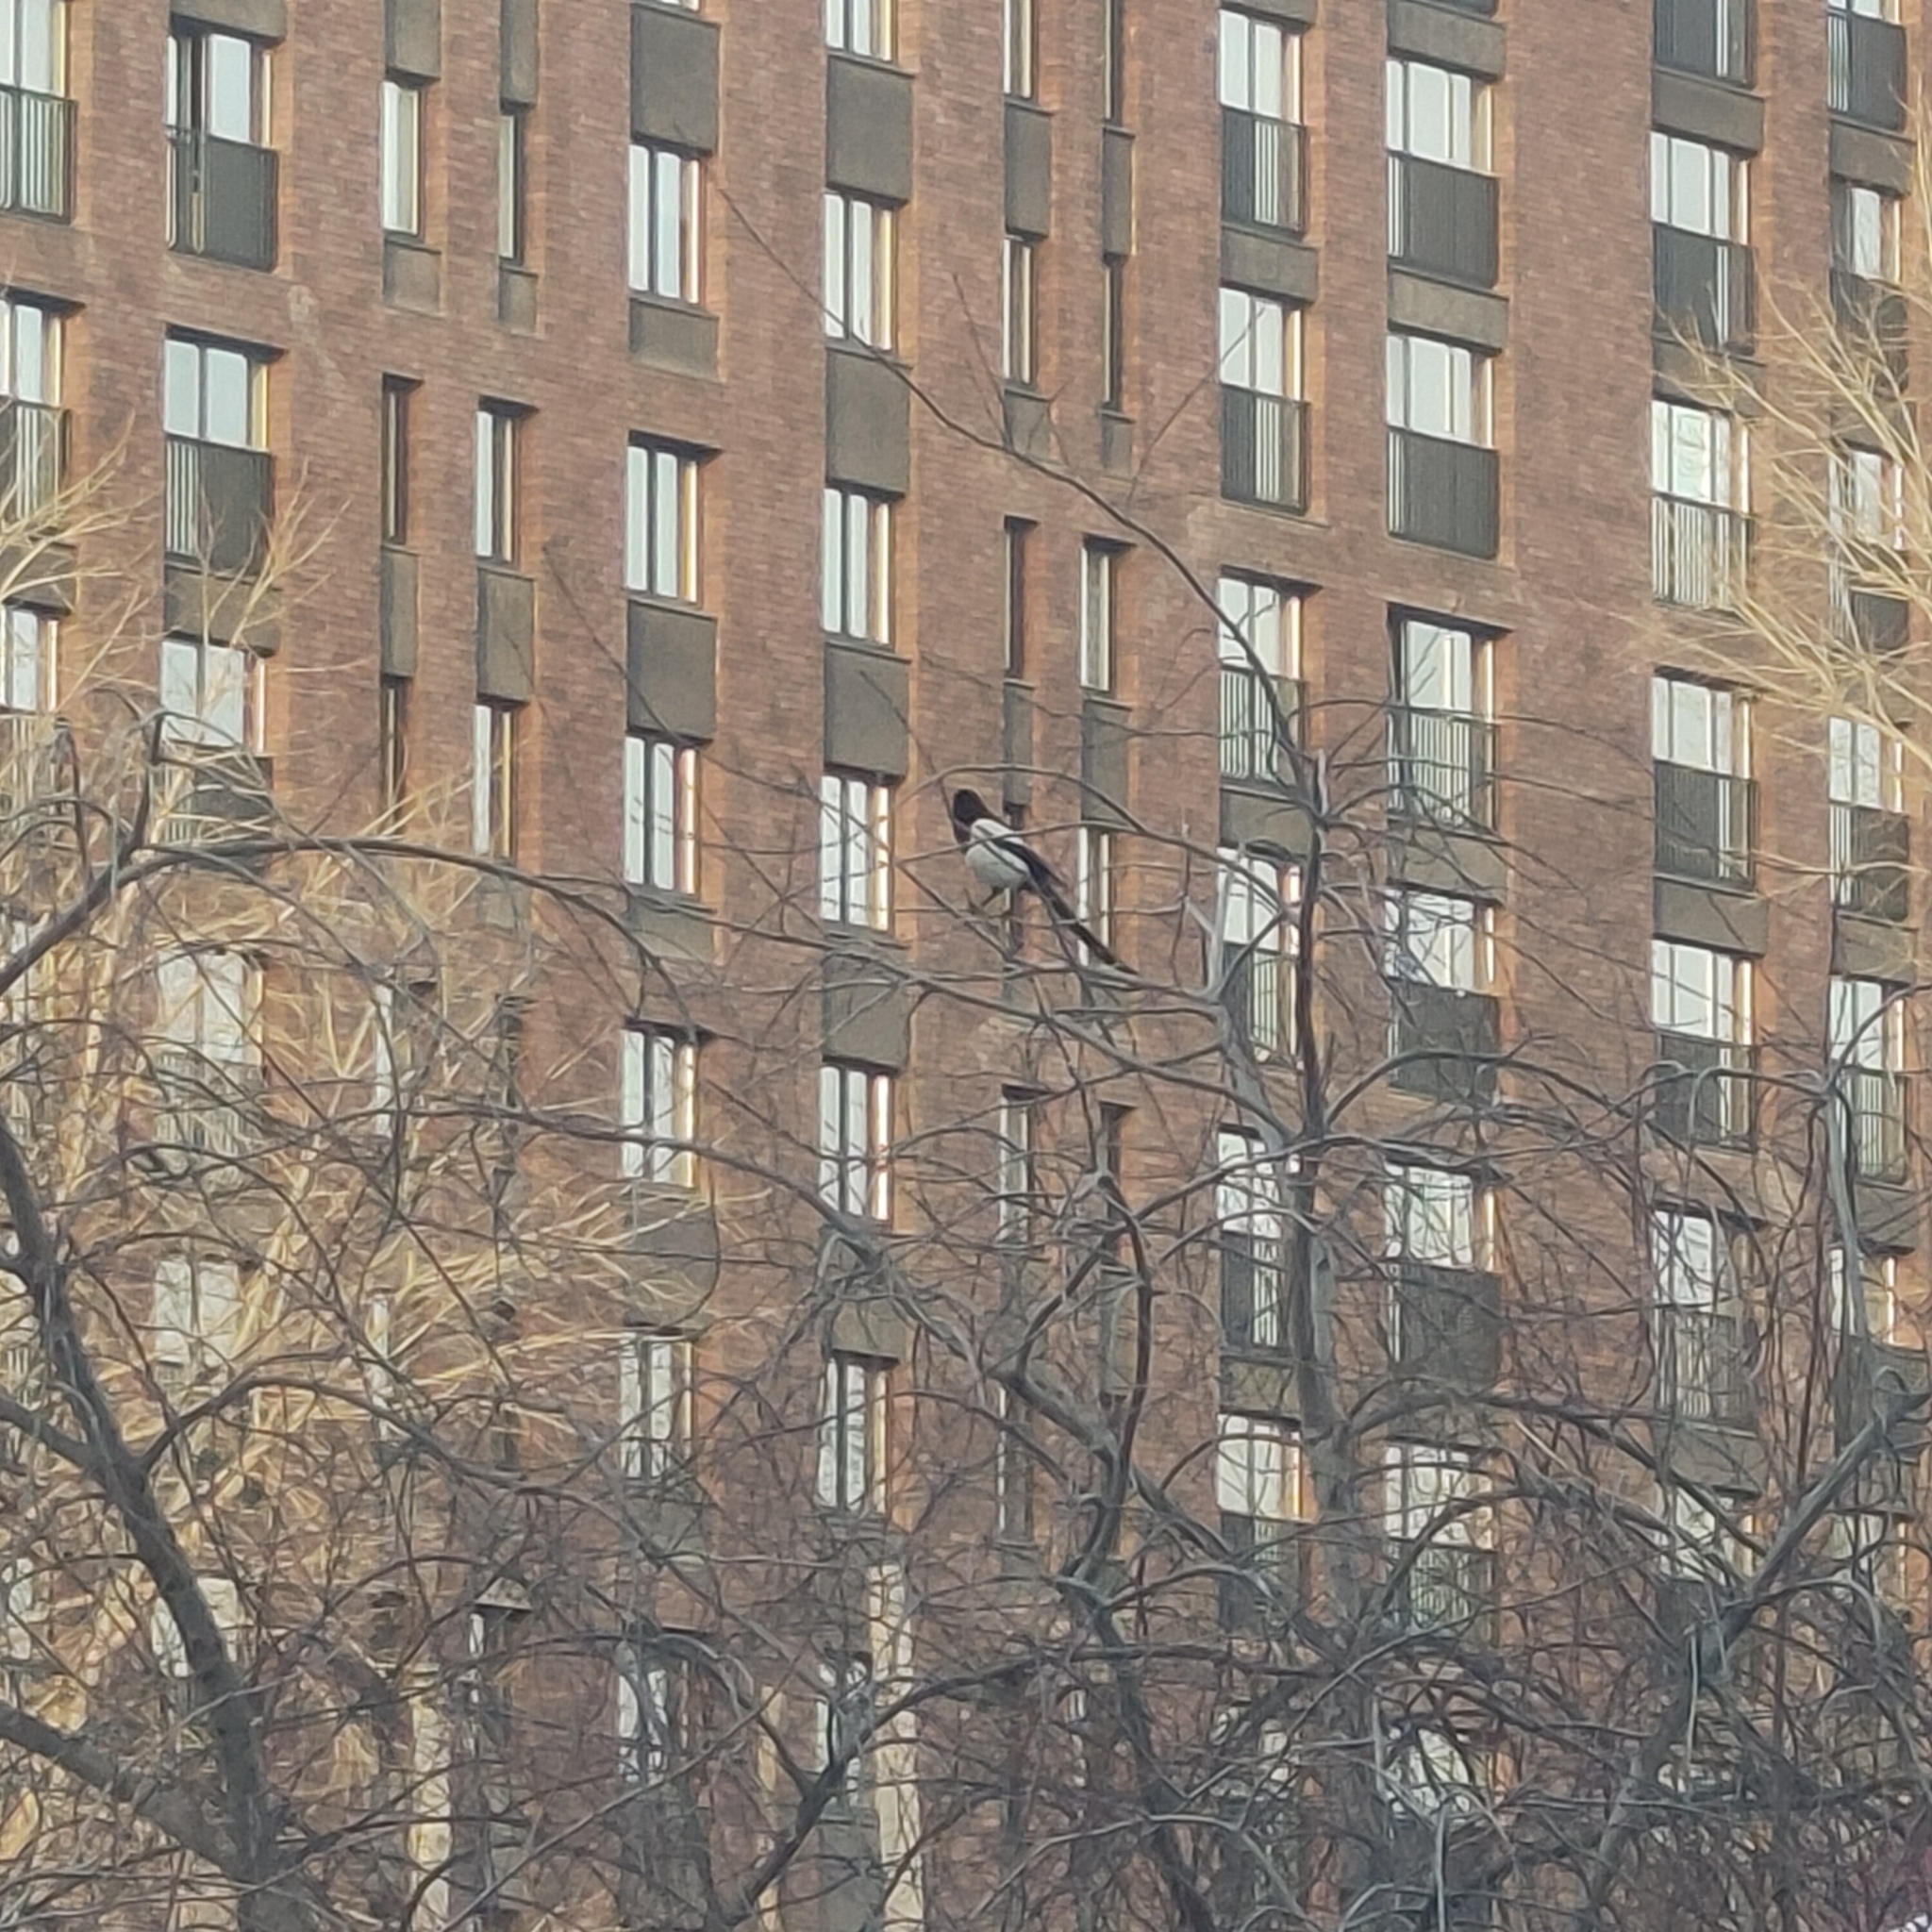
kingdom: Animalia
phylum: Chordata
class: Aves
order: Passeriformes
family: Corvidae
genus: Pica
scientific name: Pica pica
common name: Eurasian magpie
